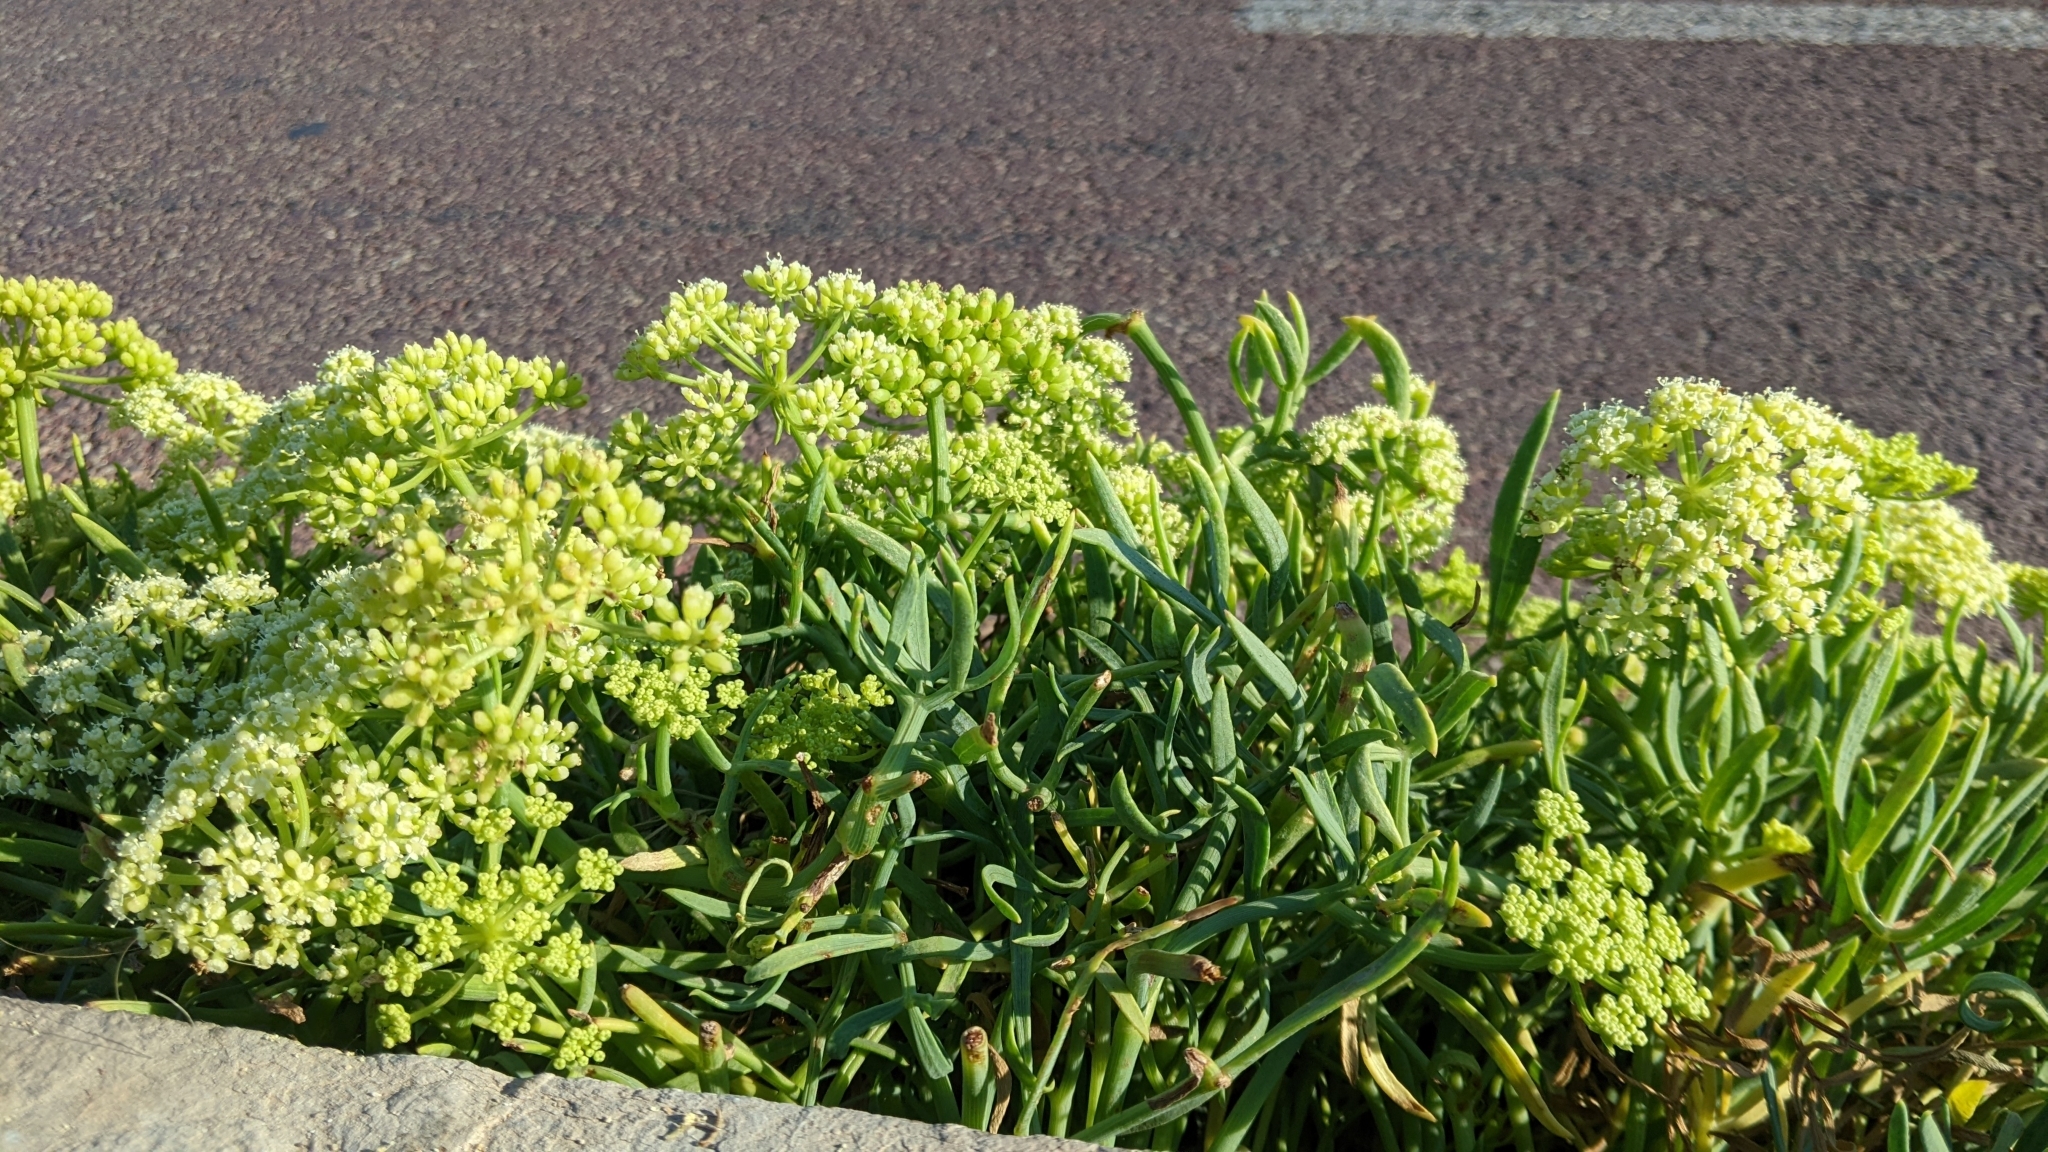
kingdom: Plantae
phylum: Tracheophyta
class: Magnoliopsida
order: Apiales
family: Apiaceae
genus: Crithmum
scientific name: Crithmum maritimum
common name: Rock samphire
